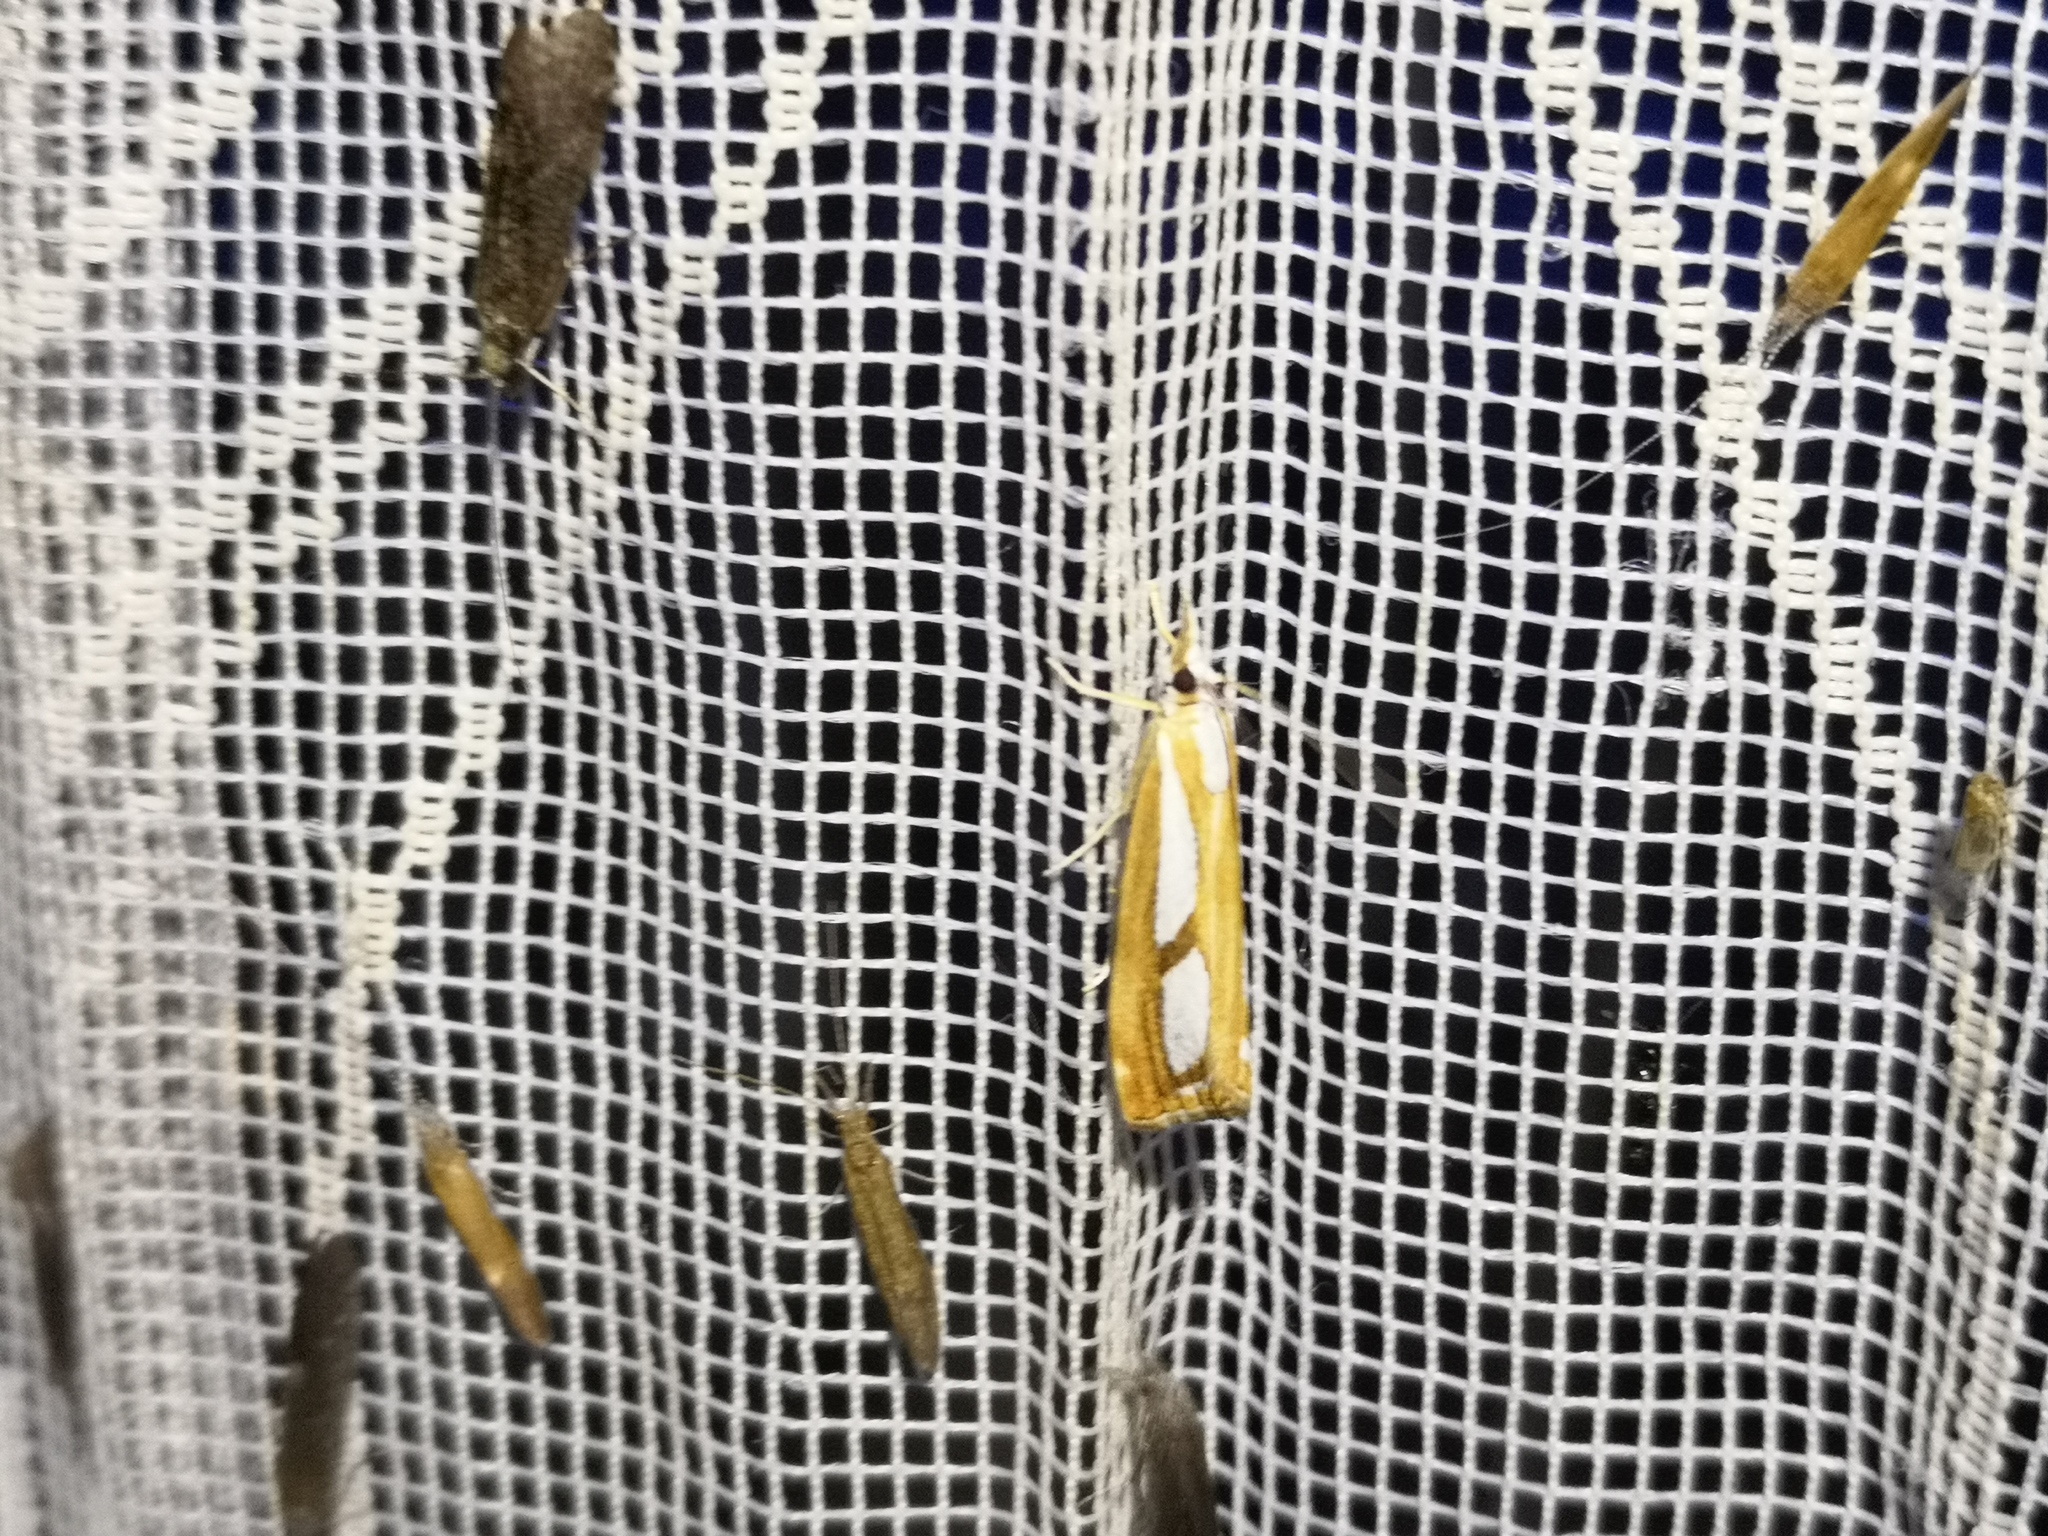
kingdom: Animalia
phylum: Arthropoda
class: Insecta
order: Lepidoptera
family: Crambidae
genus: Catoptria
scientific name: Catoptria permutatellus
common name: Scotch grass-veneer
